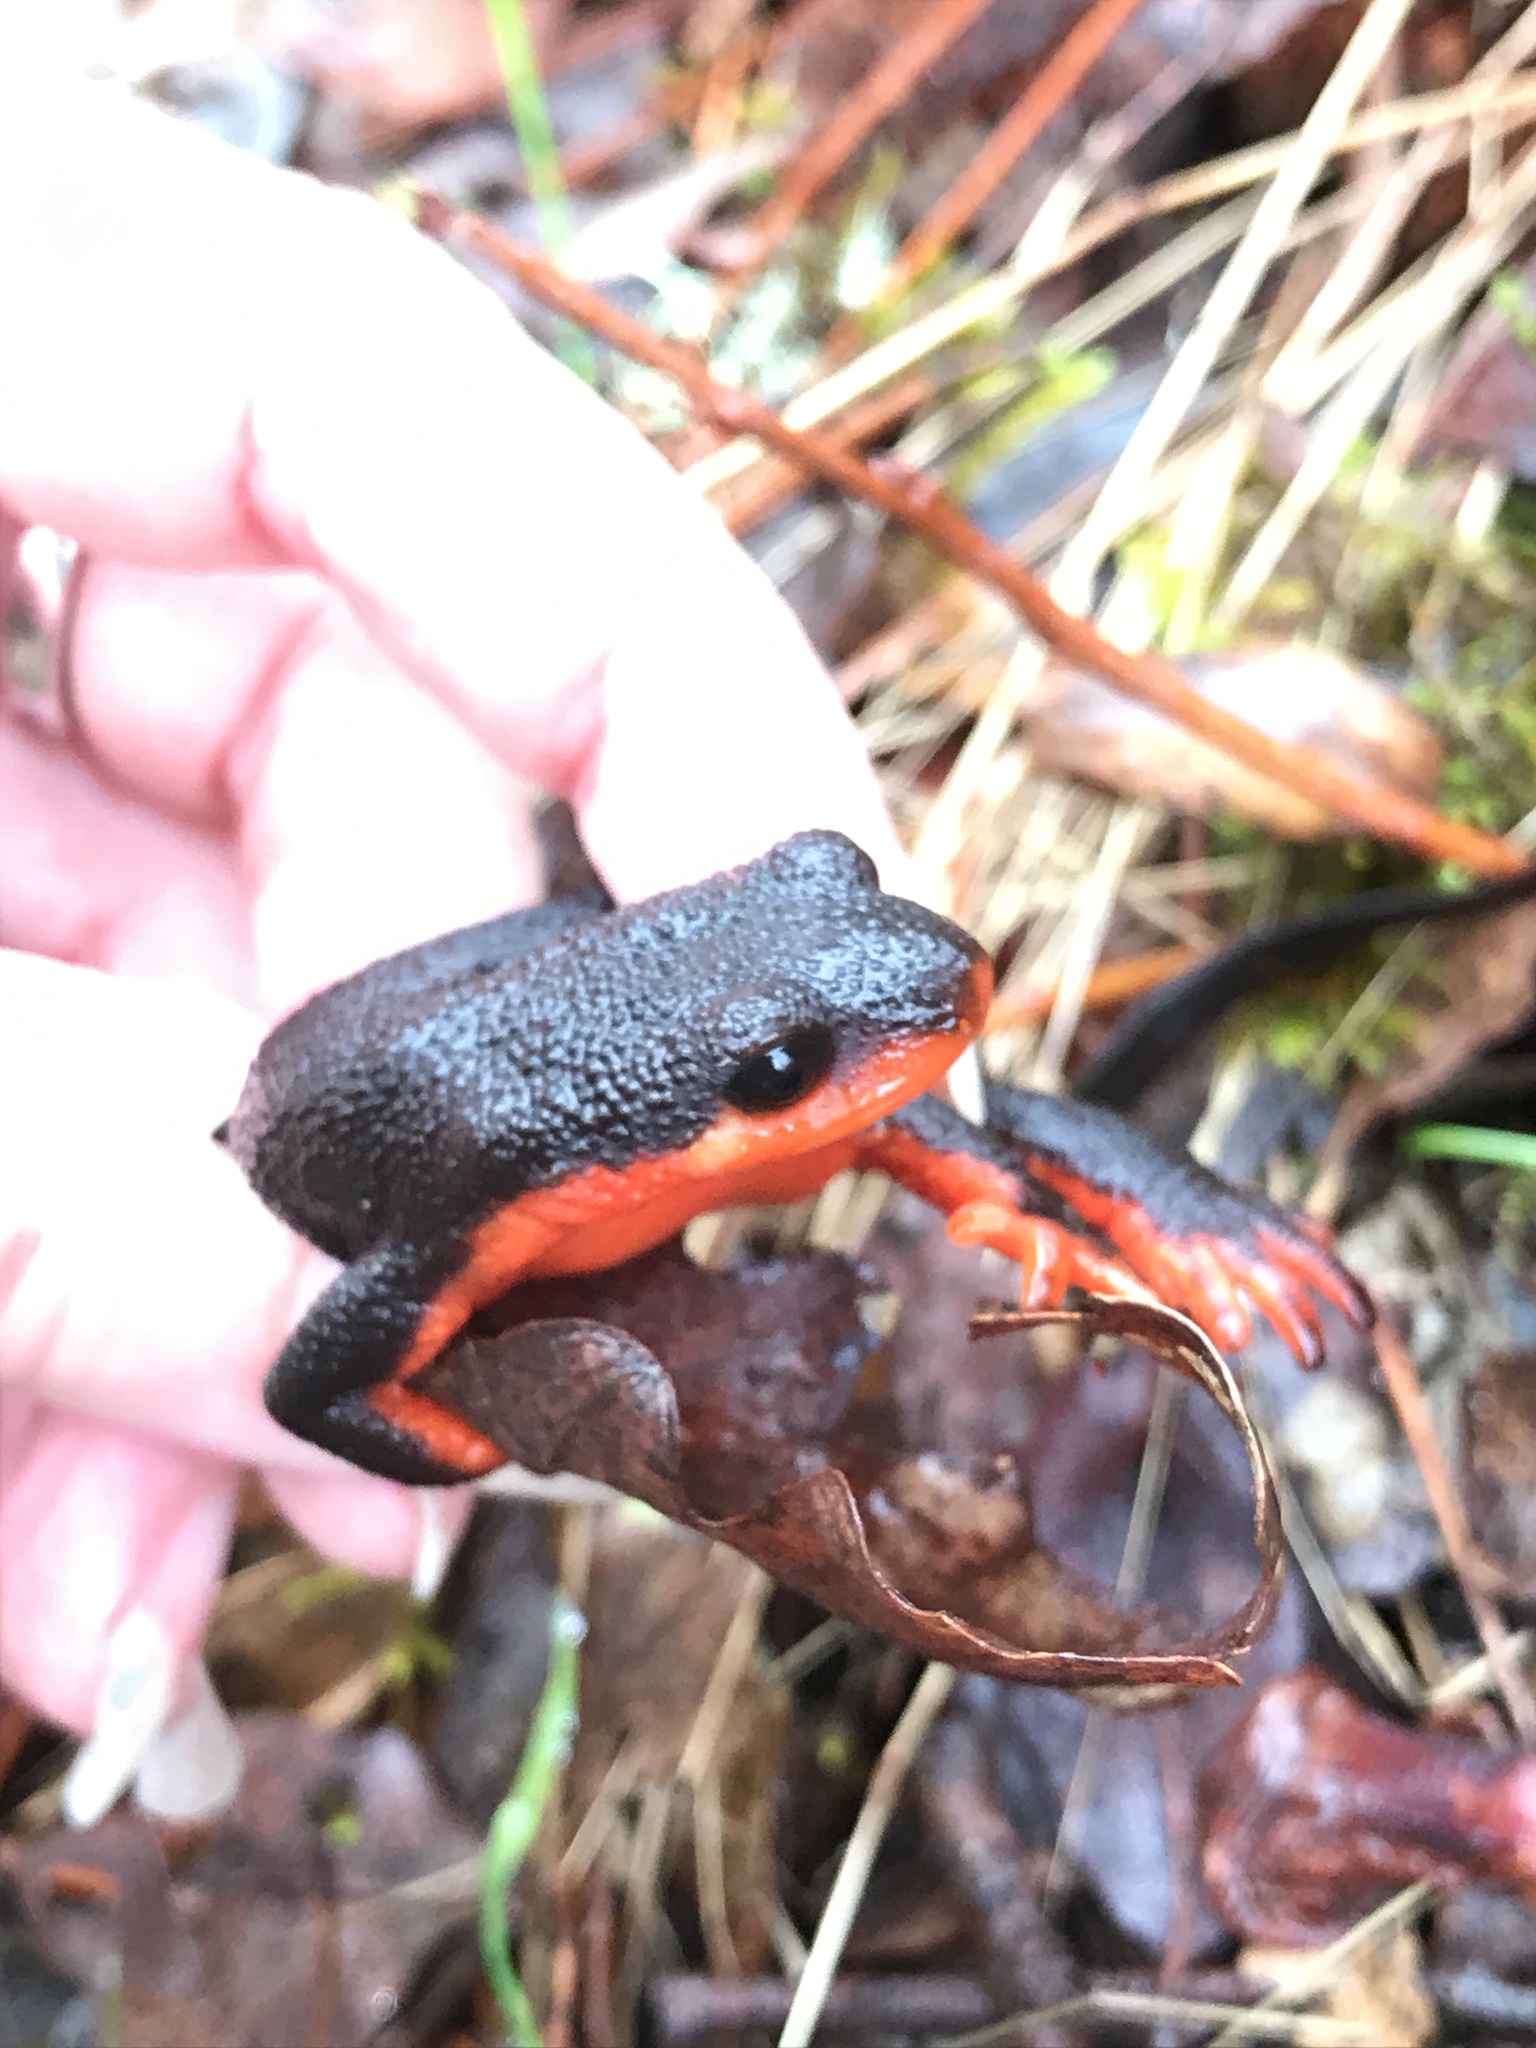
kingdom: Animalia
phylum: Chordata
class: Amphibia
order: Caudata
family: Salamandridae
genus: Taricha
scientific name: Taricha rivularis
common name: Red-bellied newt
